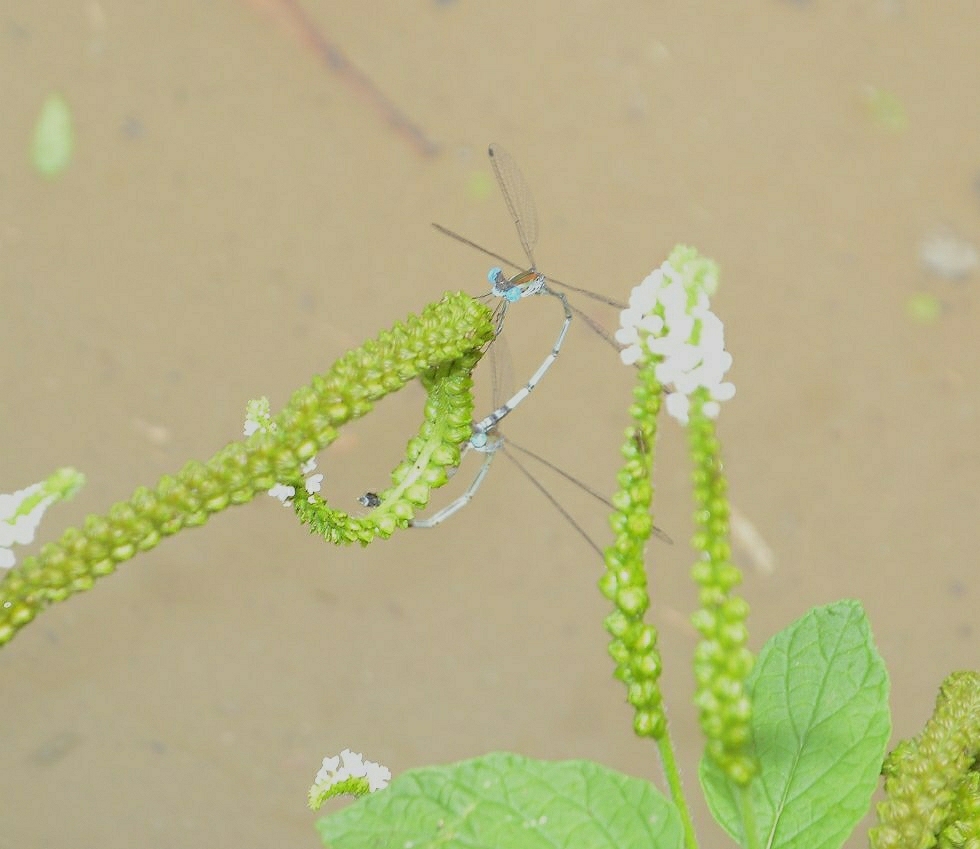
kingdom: Animalia
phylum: Arthropoda
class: Insecta
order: Odonata
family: Lestidae
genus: Lestes
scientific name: Lestes elatus
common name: Emerald spreadwing
